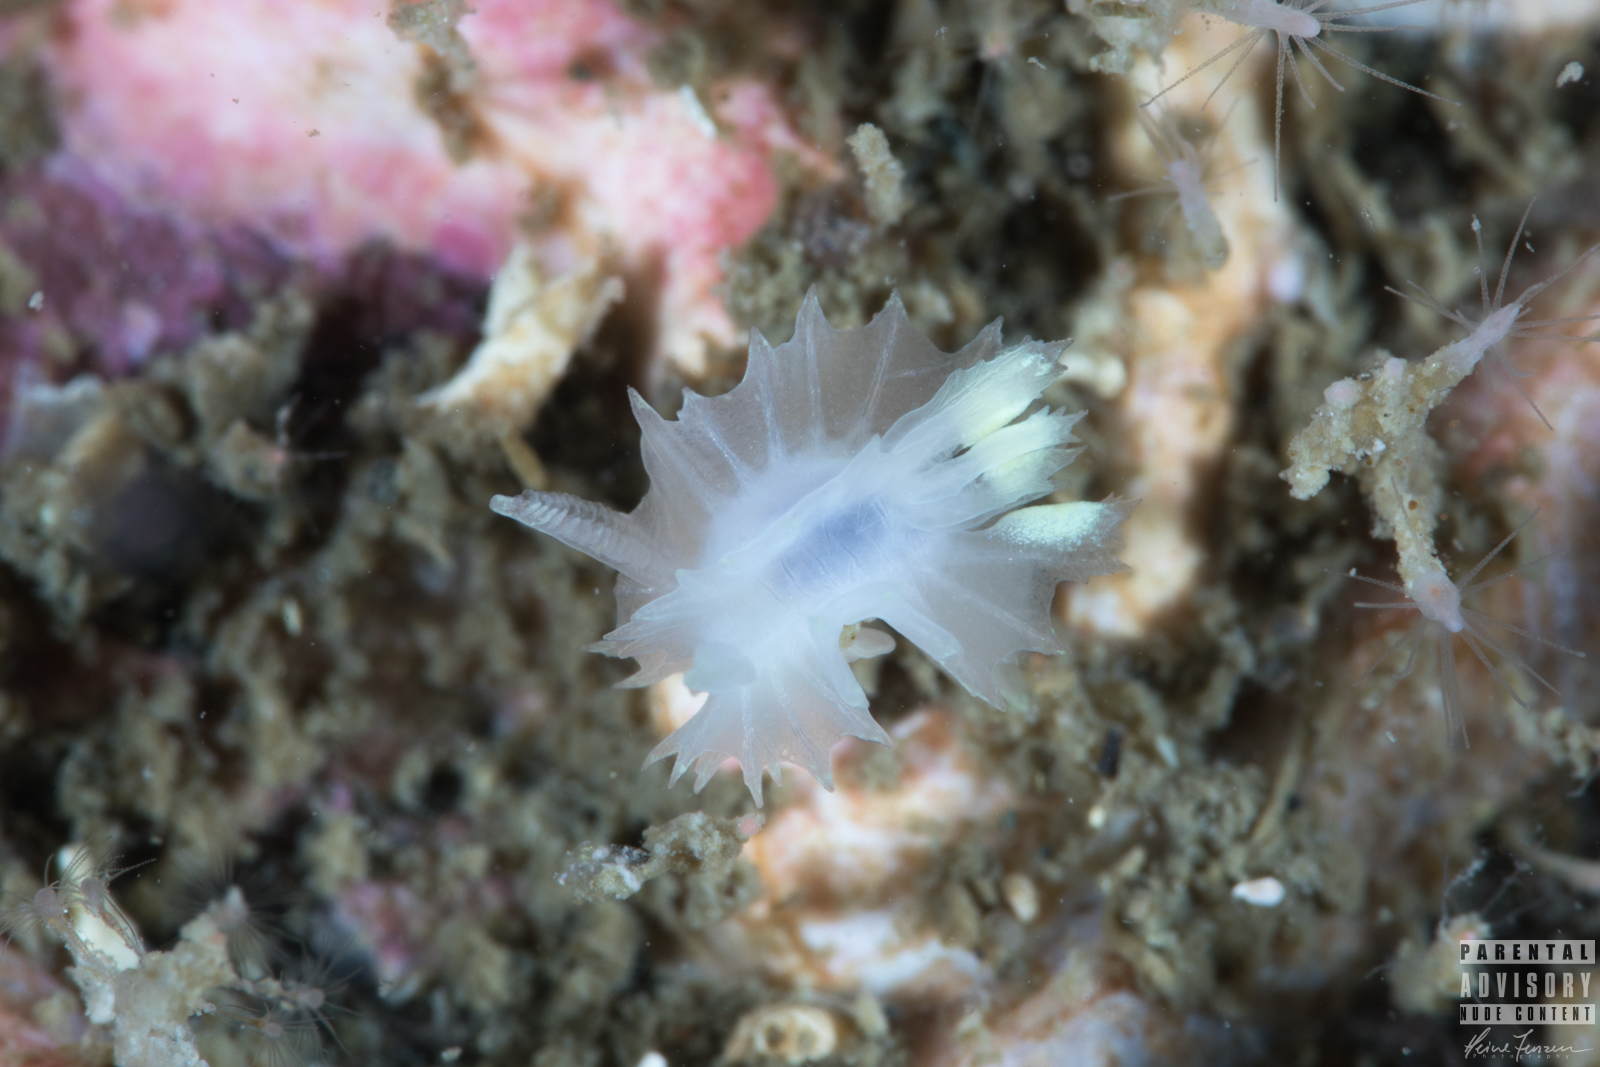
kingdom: Animalia
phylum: Mollusca
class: Gastropoda
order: Nudibranchia
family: Goniodorididae
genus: Lophodoris
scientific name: Lophodoris danielsseni
